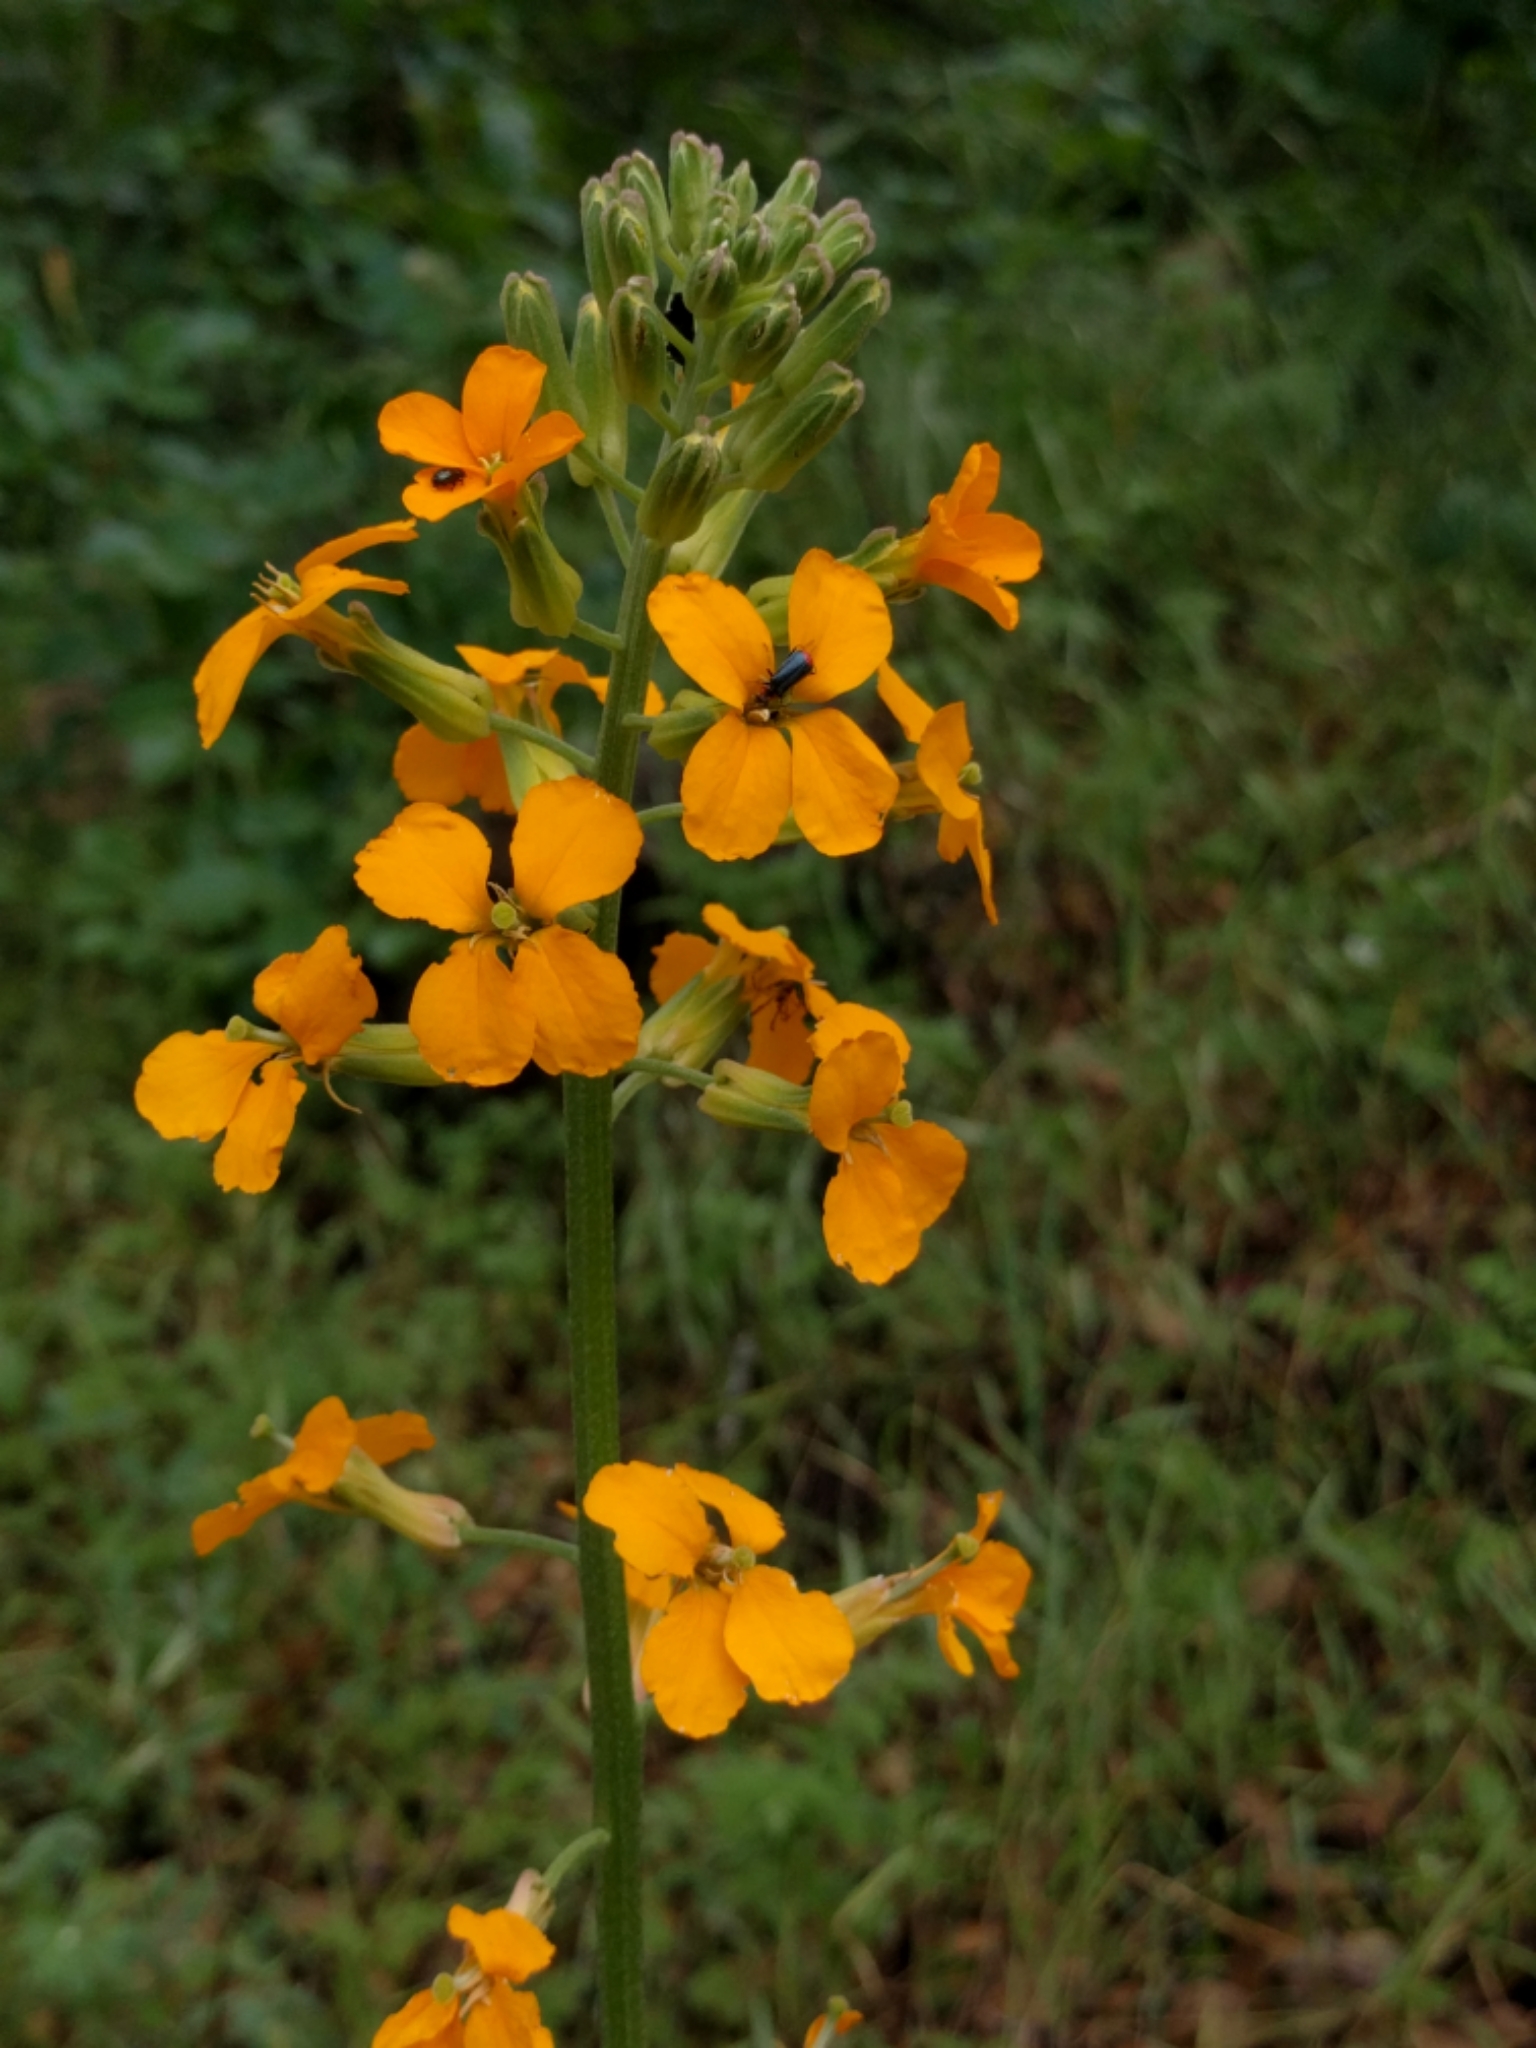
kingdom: Plantae
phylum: Tracheophyta
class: Magnoliopsida
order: Brassicales
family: Brassicaceae
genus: Erysimum
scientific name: Erysimum capitatum
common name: Western wallflower
